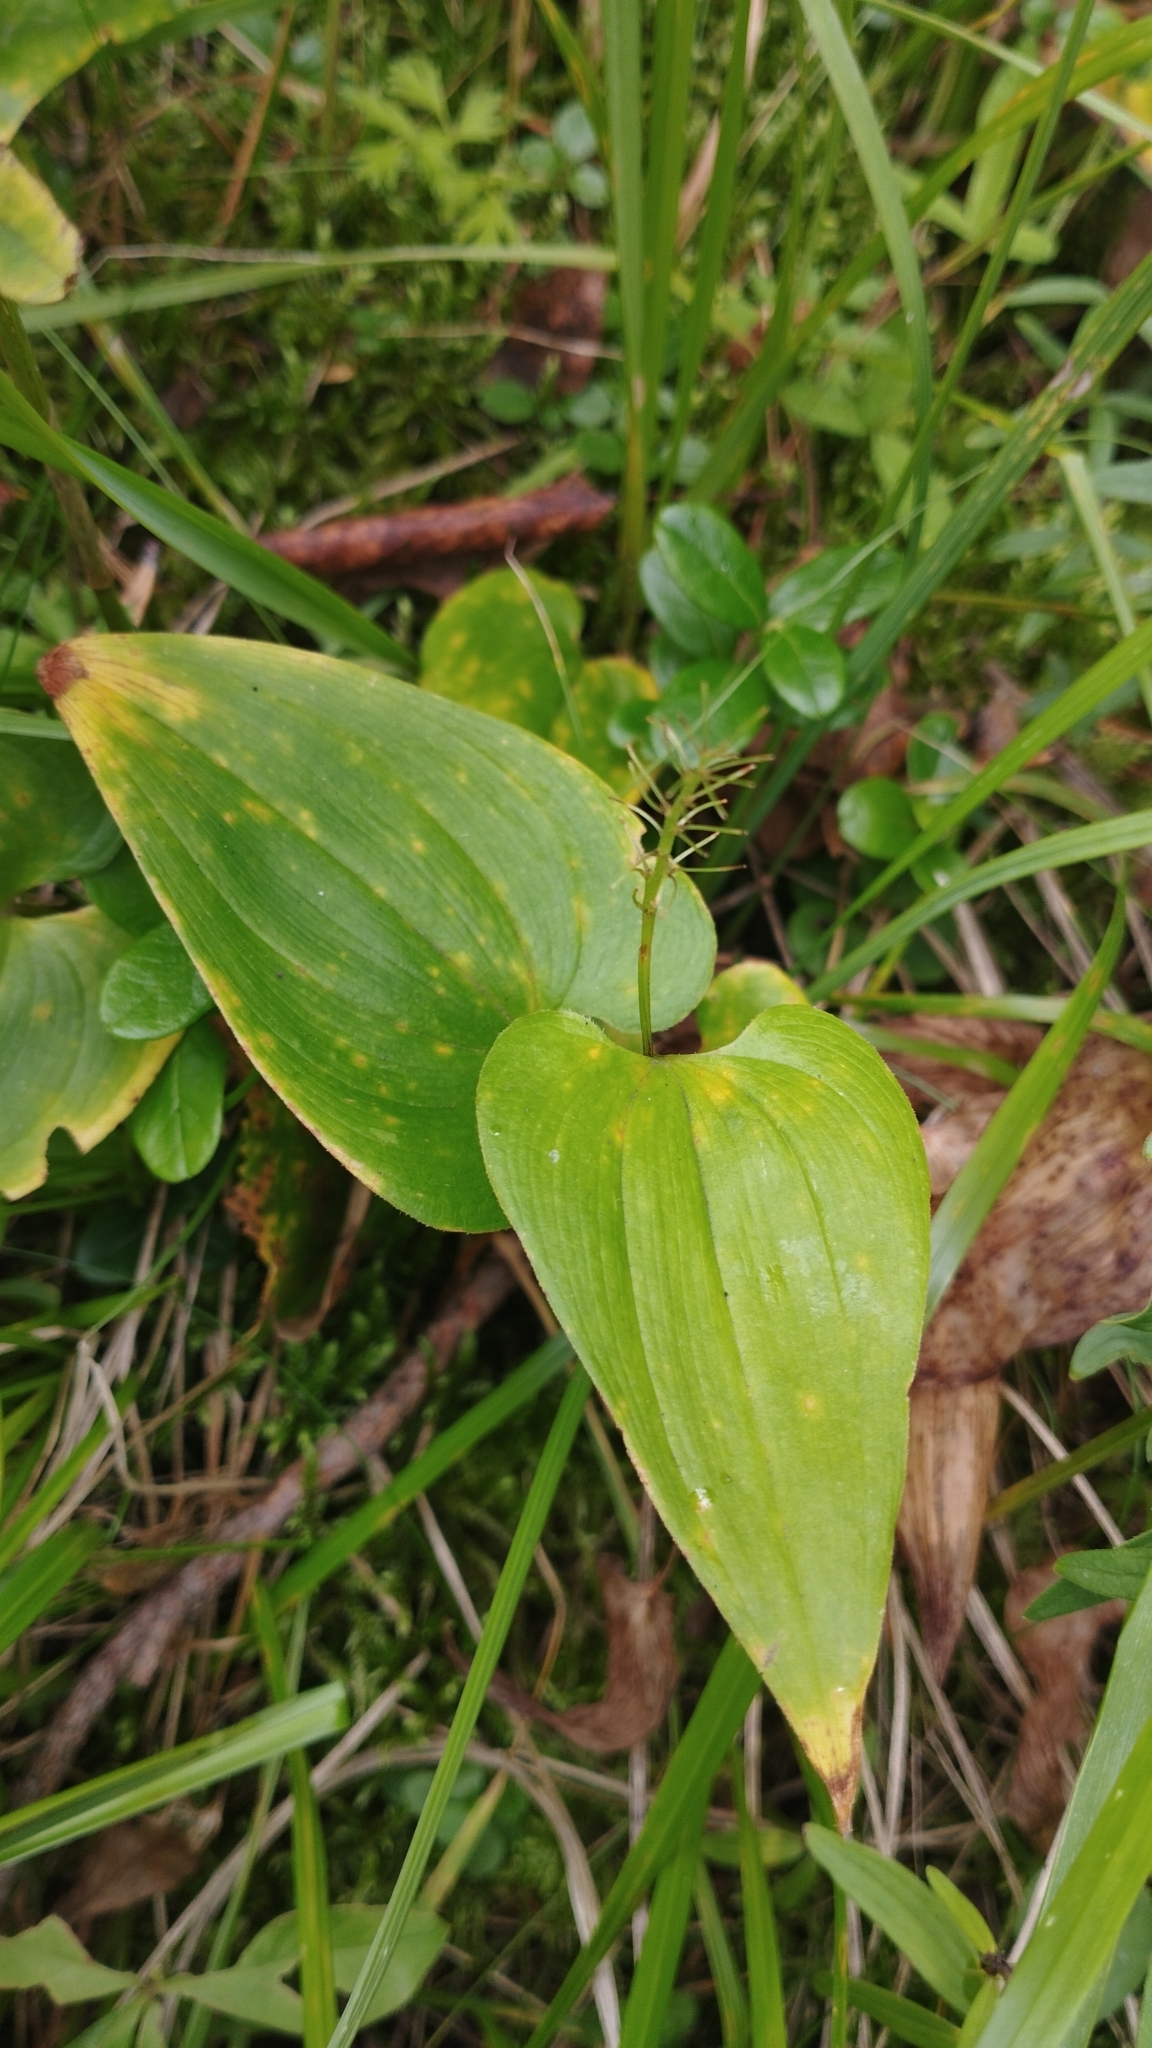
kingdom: Plantae
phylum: Tracheophyta
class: Liliopsida
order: Asparagales
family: Asparagaceae
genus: Maianthemum
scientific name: Maianthemum bifolium
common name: May lily
